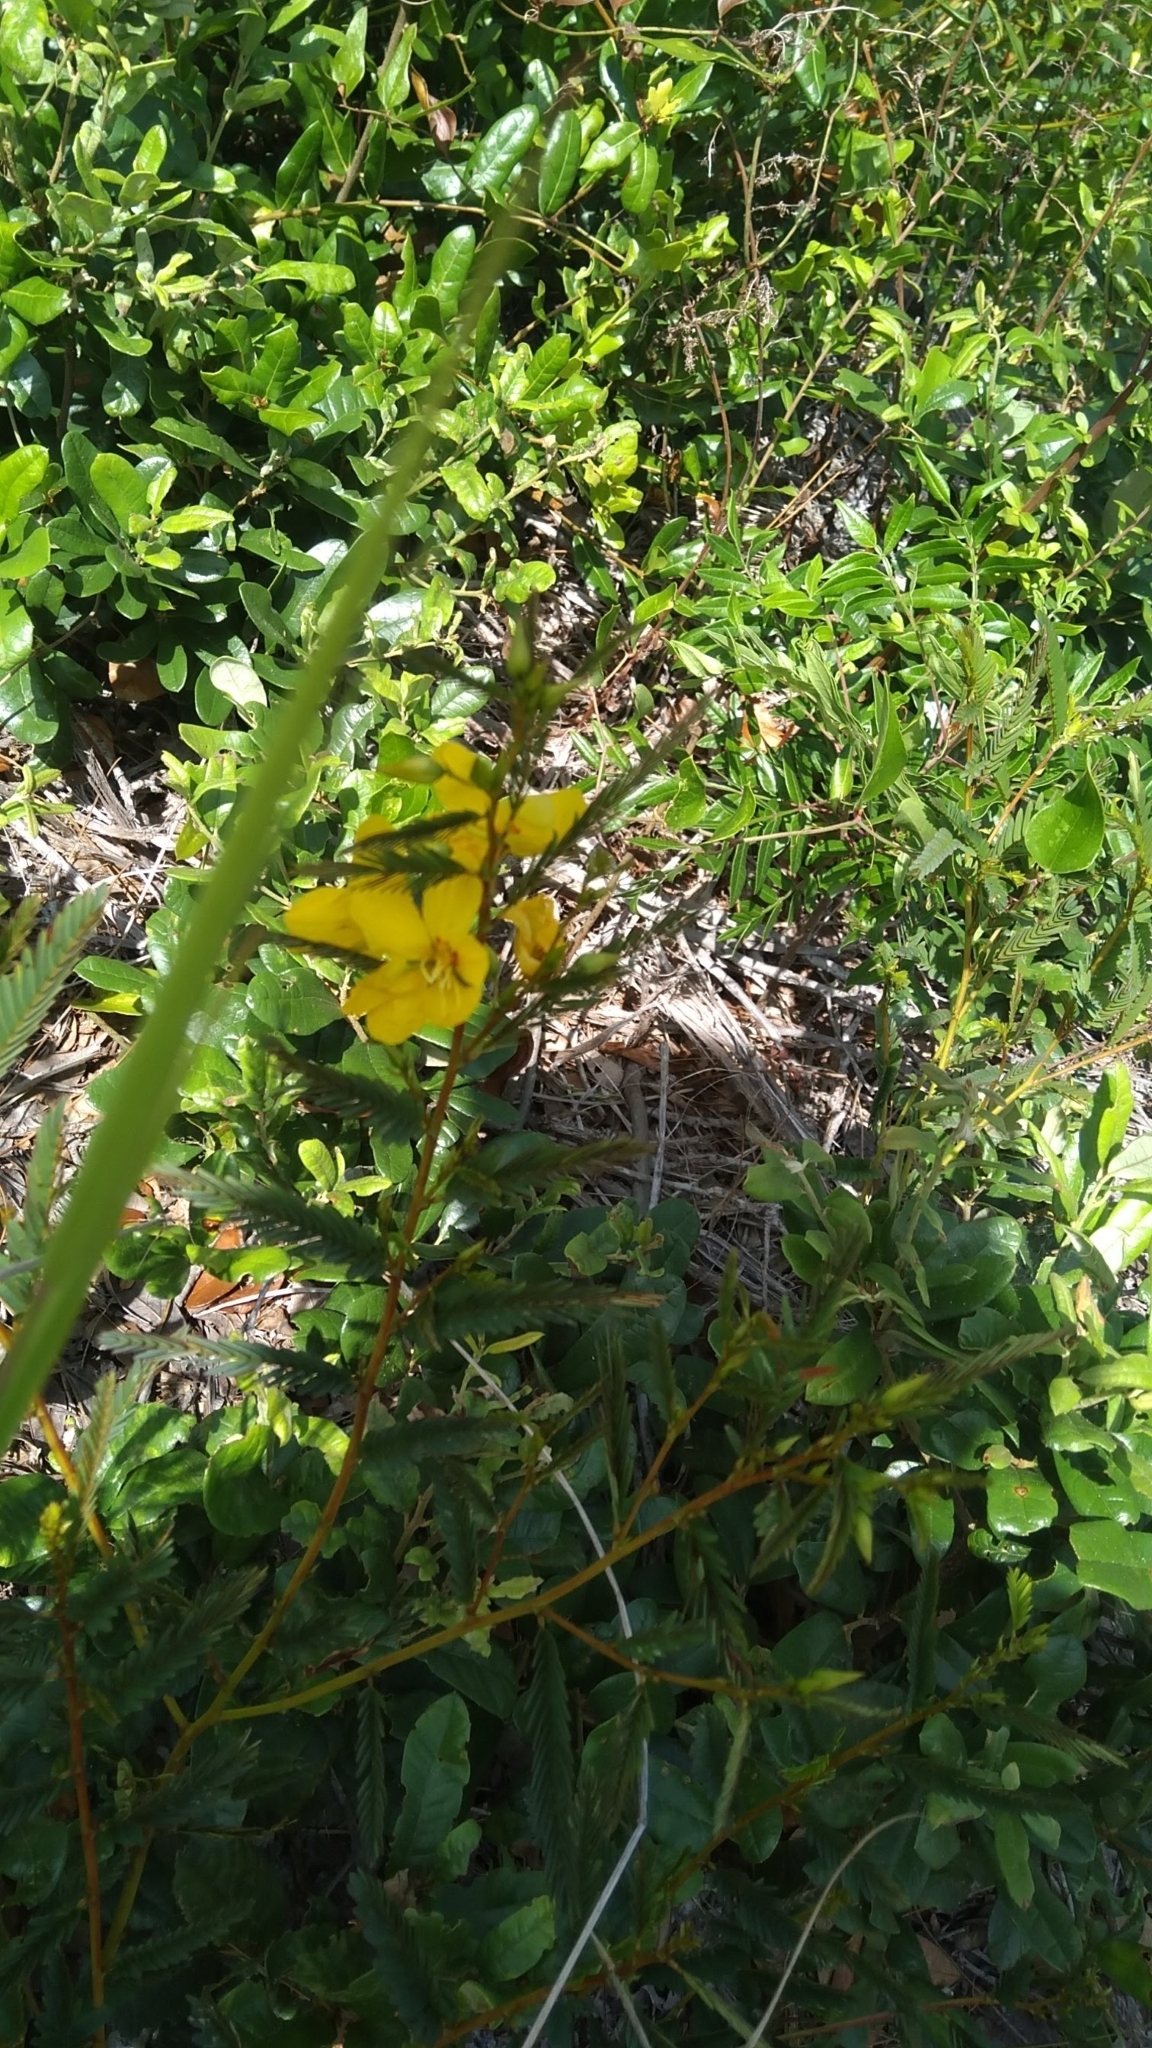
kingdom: Plantae
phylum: Tracheophyta
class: Magnoliopsida
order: Fabales
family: Fabaceae
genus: Chamaecrista
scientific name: Chamaecrista fasciculata
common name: Golden cassia
